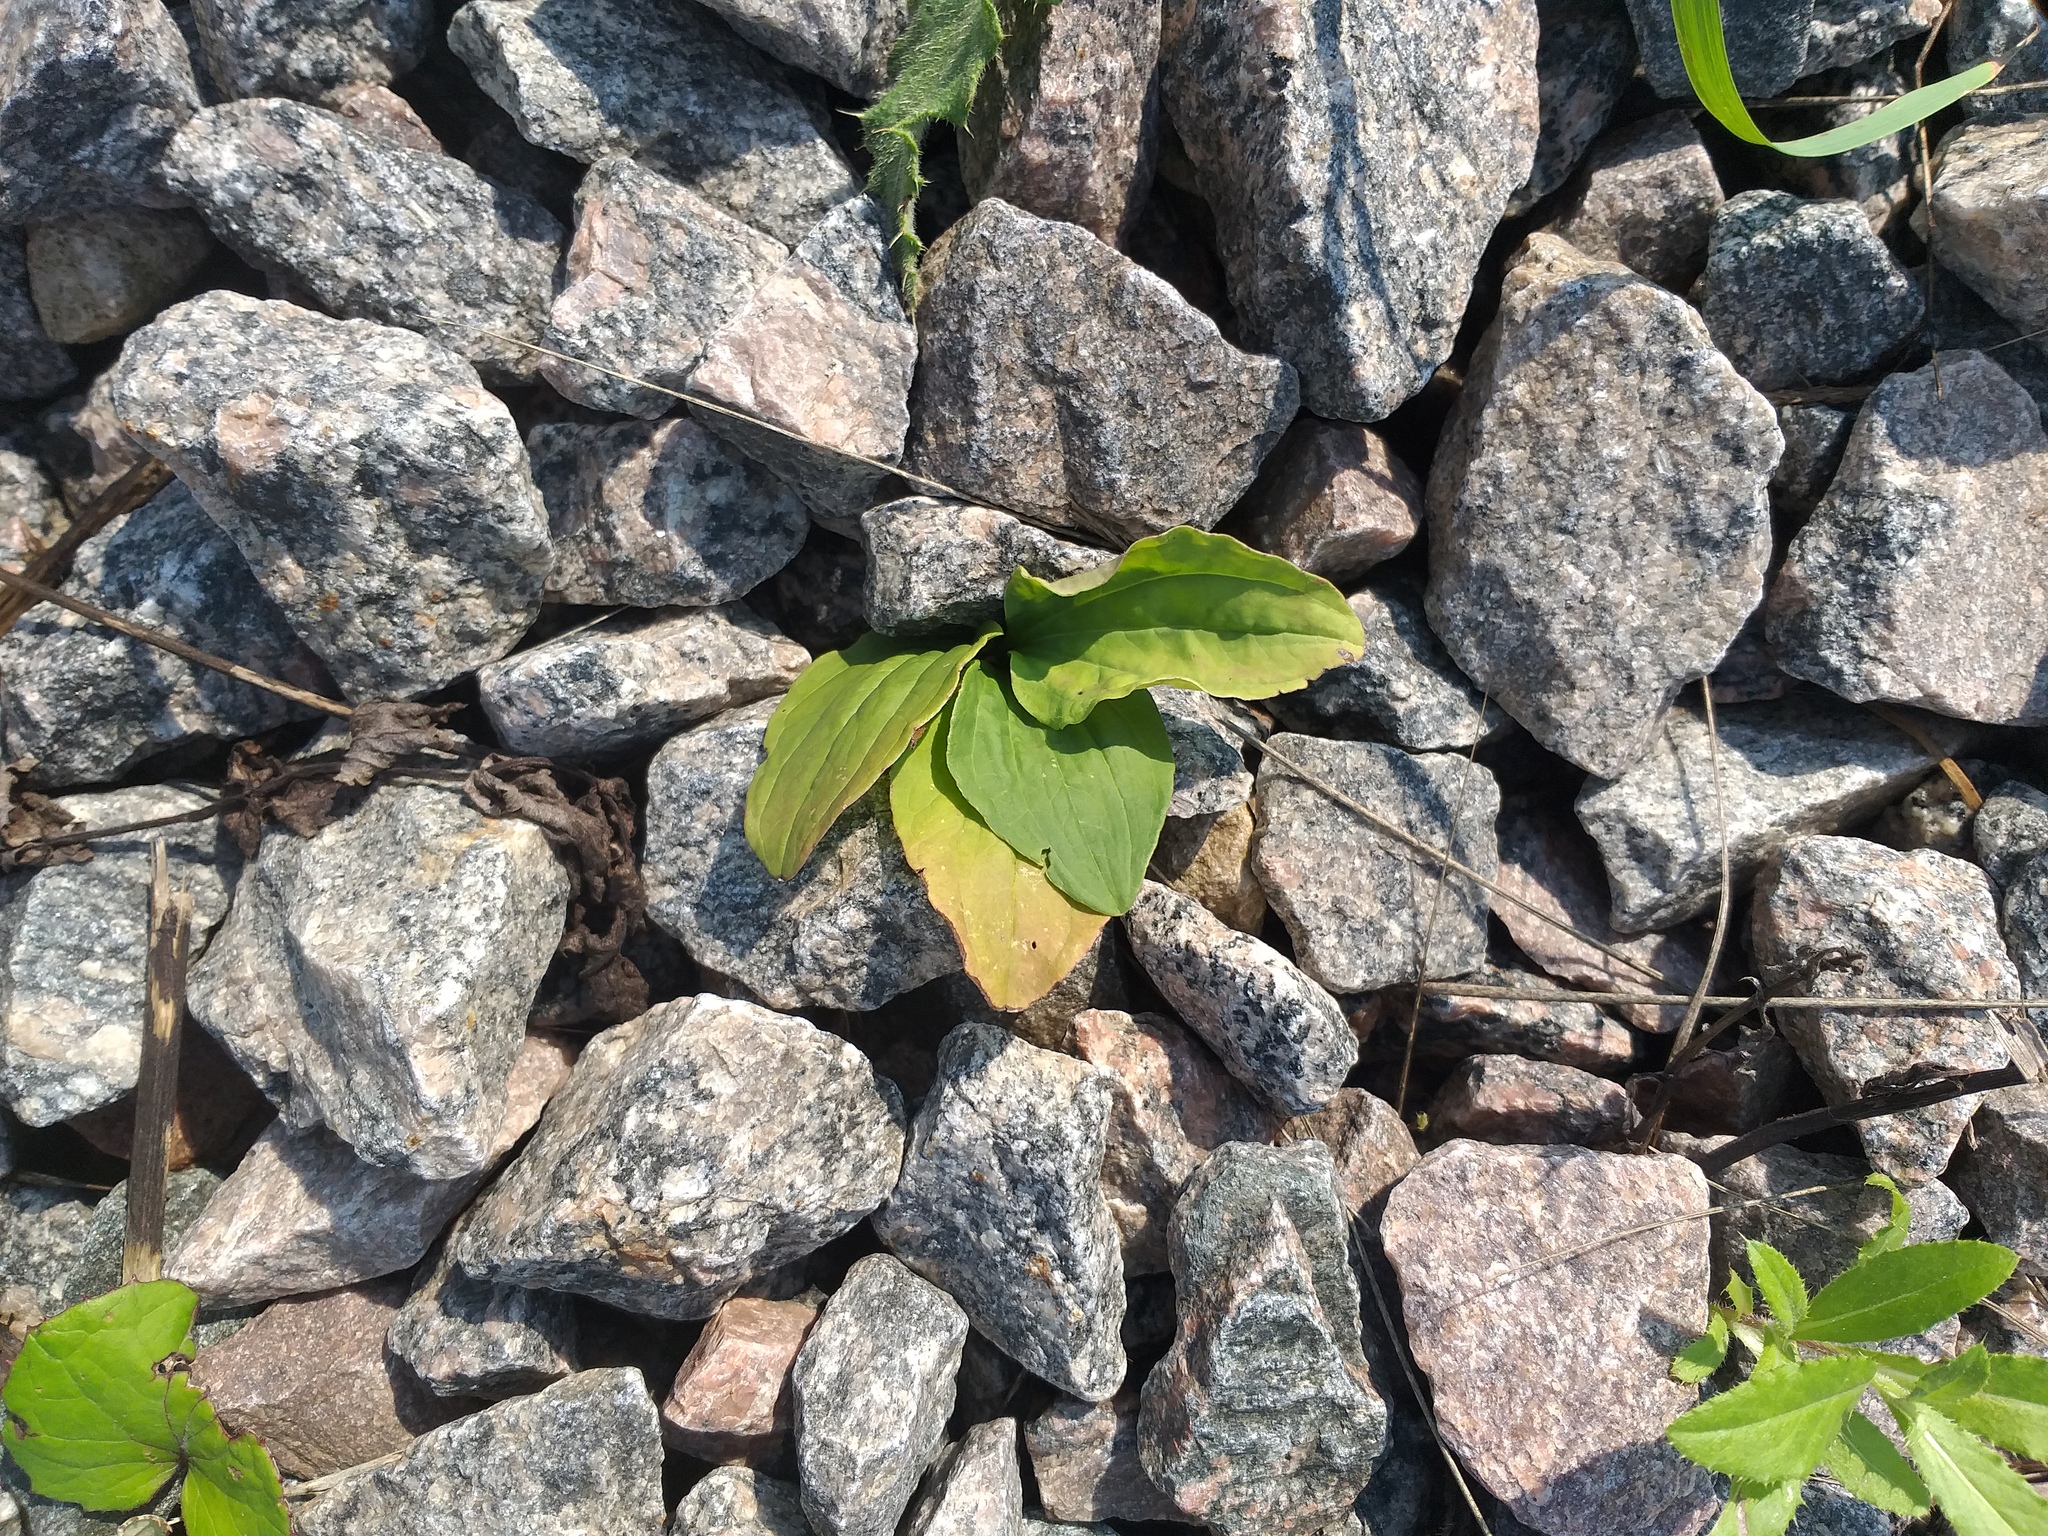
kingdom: Plantae
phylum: Tracheophyta
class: Magnoliopsida
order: Lamiales
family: Plantaginaceae
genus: Plantago
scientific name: Plantago major
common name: Common plantain
